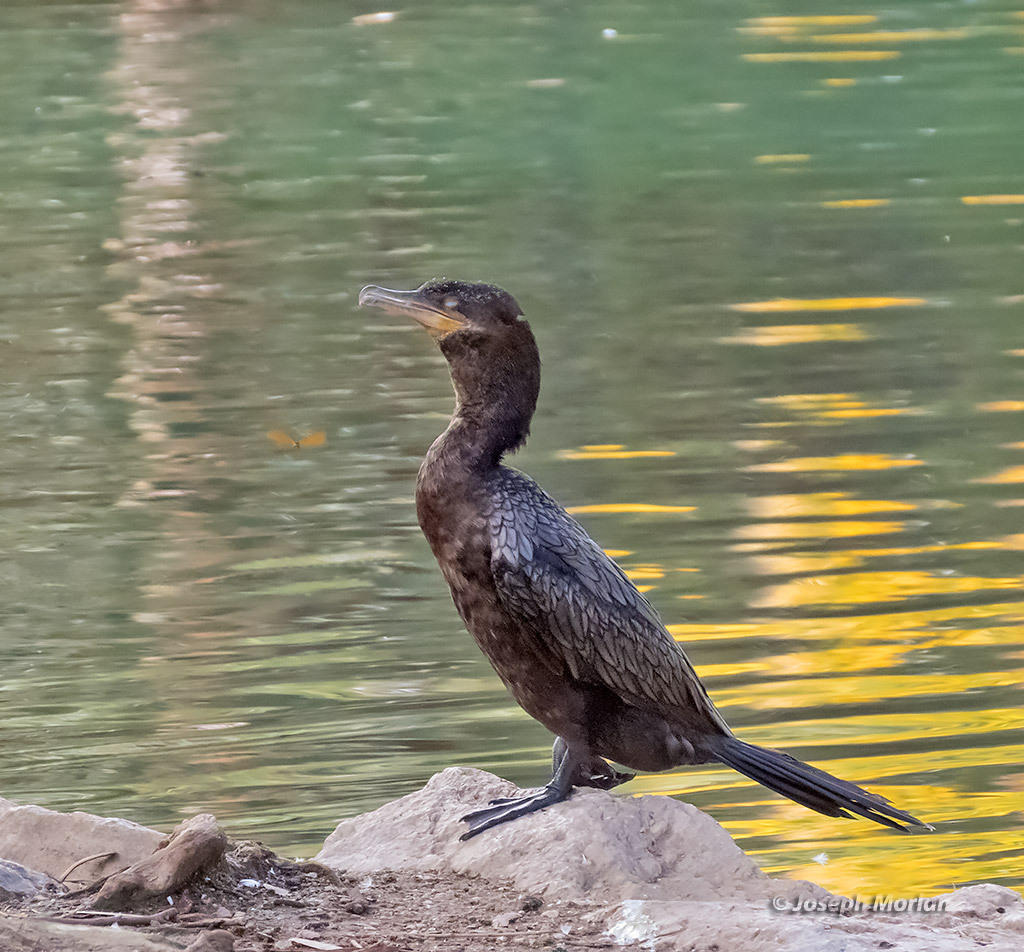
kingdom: Animalia
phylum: Chordata
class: Aves
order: Suliformes
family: Phalacrocoracidae
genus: Phalacrocorax
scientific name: Phalacrocorax brasilianus
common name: Neotropic cormorant
